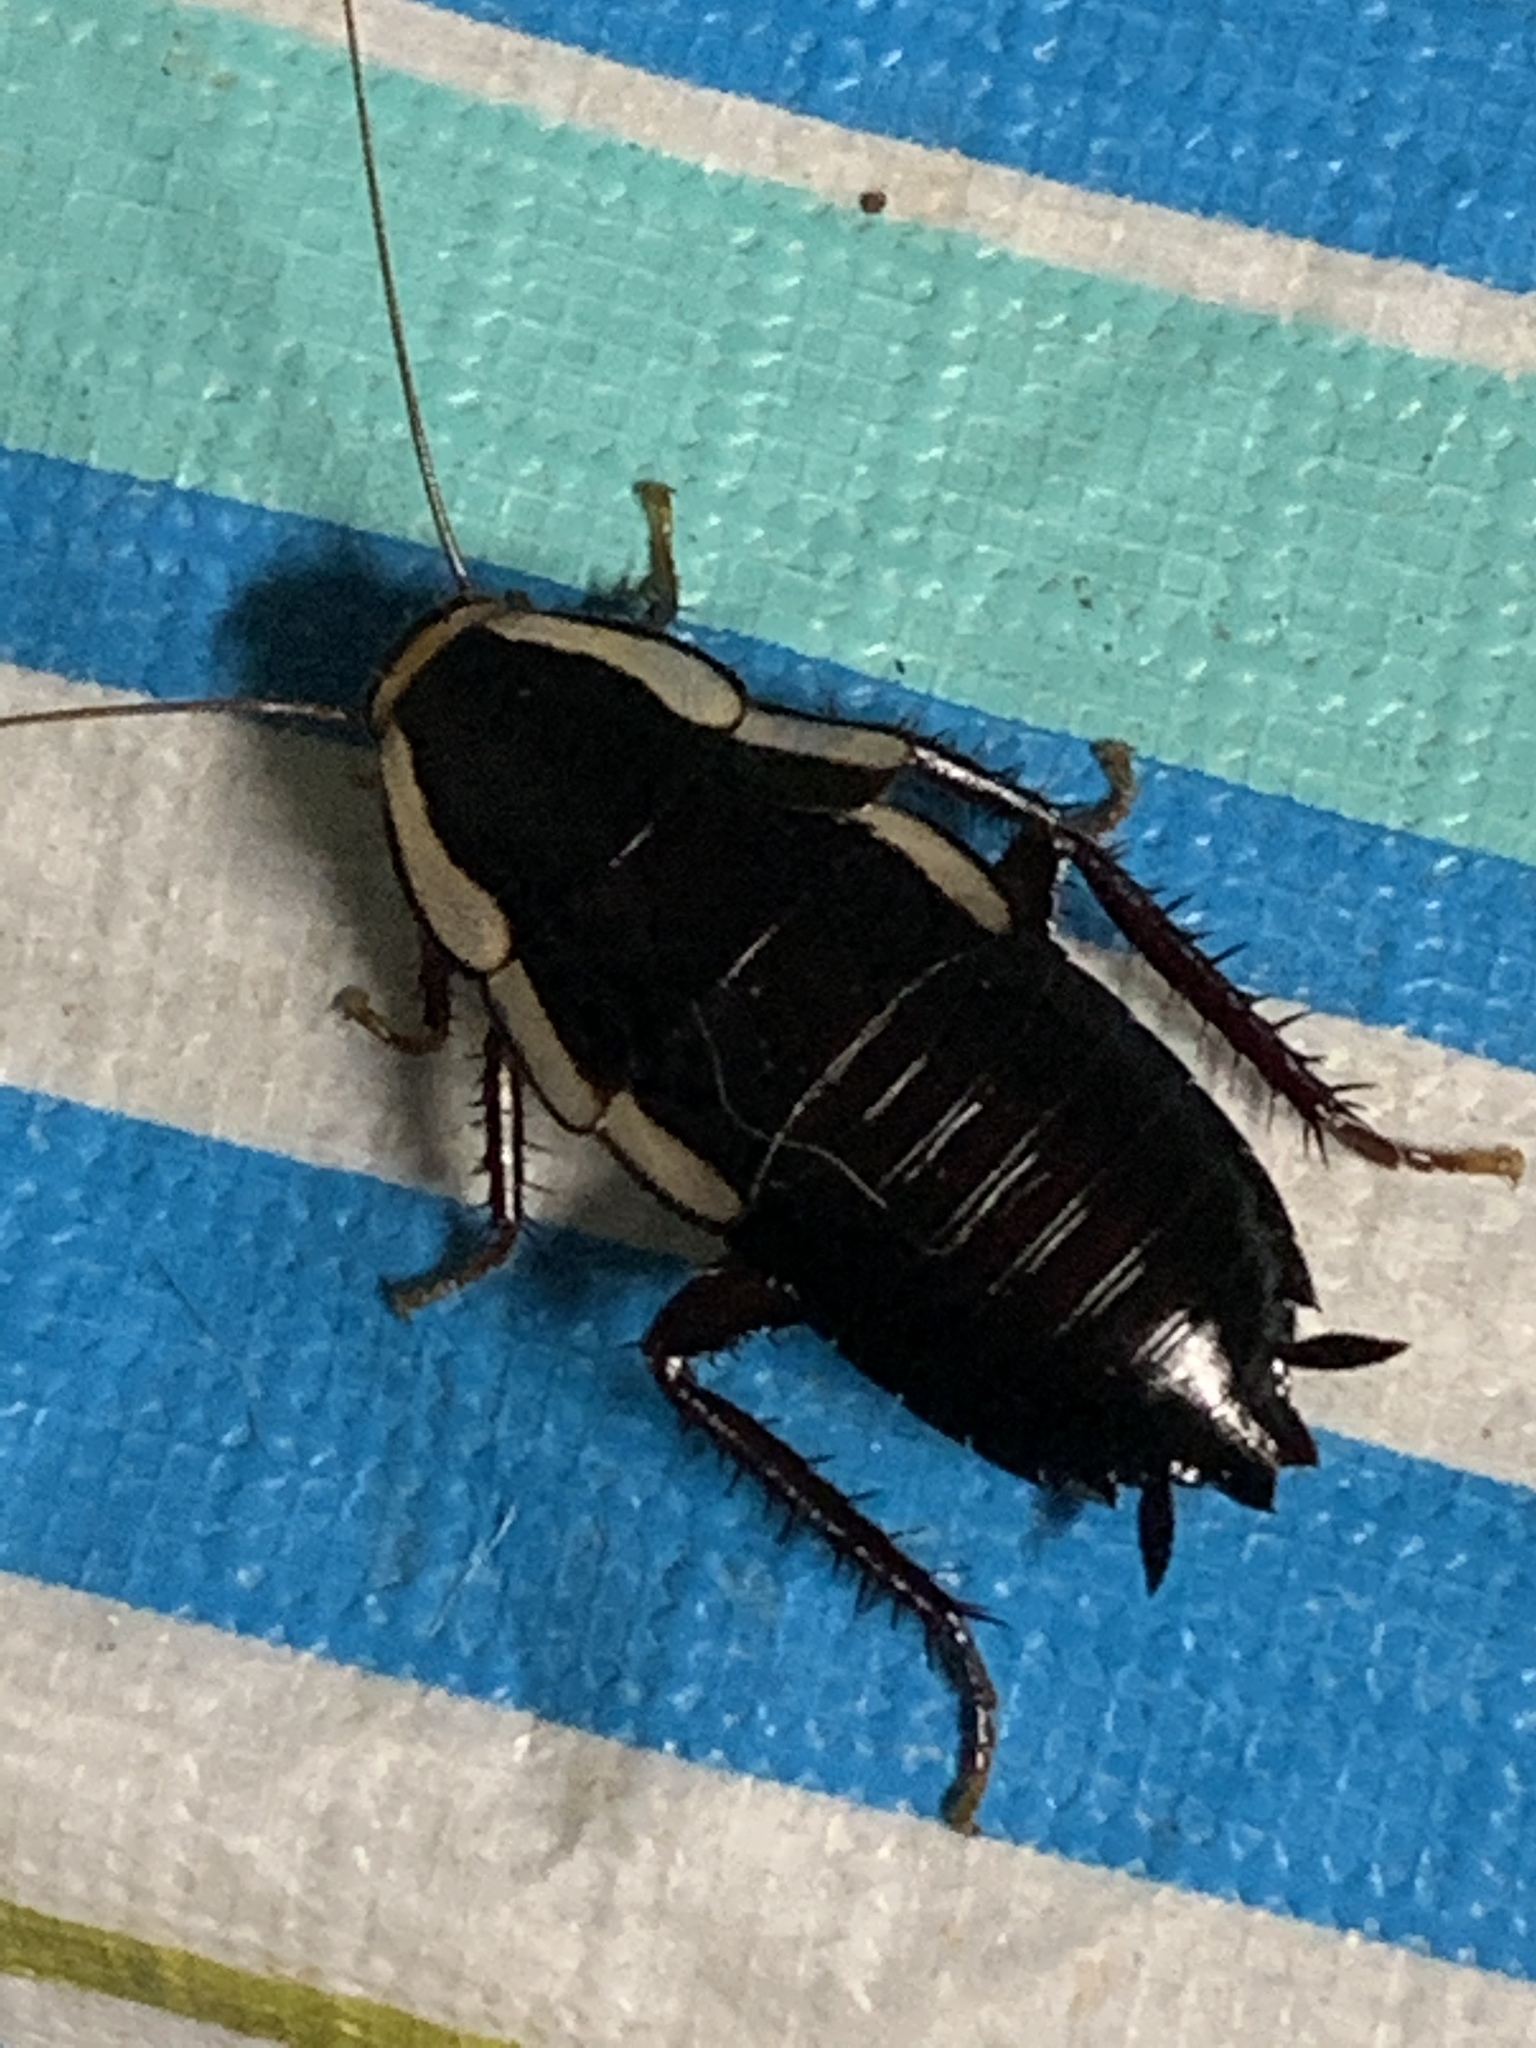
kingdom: Animalia
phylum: Arthropoda
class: Insecta
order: Blattodea
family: Blattidae
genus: Drymaplaneta
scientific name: Drymaplaneta semivitta
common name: Gisborne cockroach
